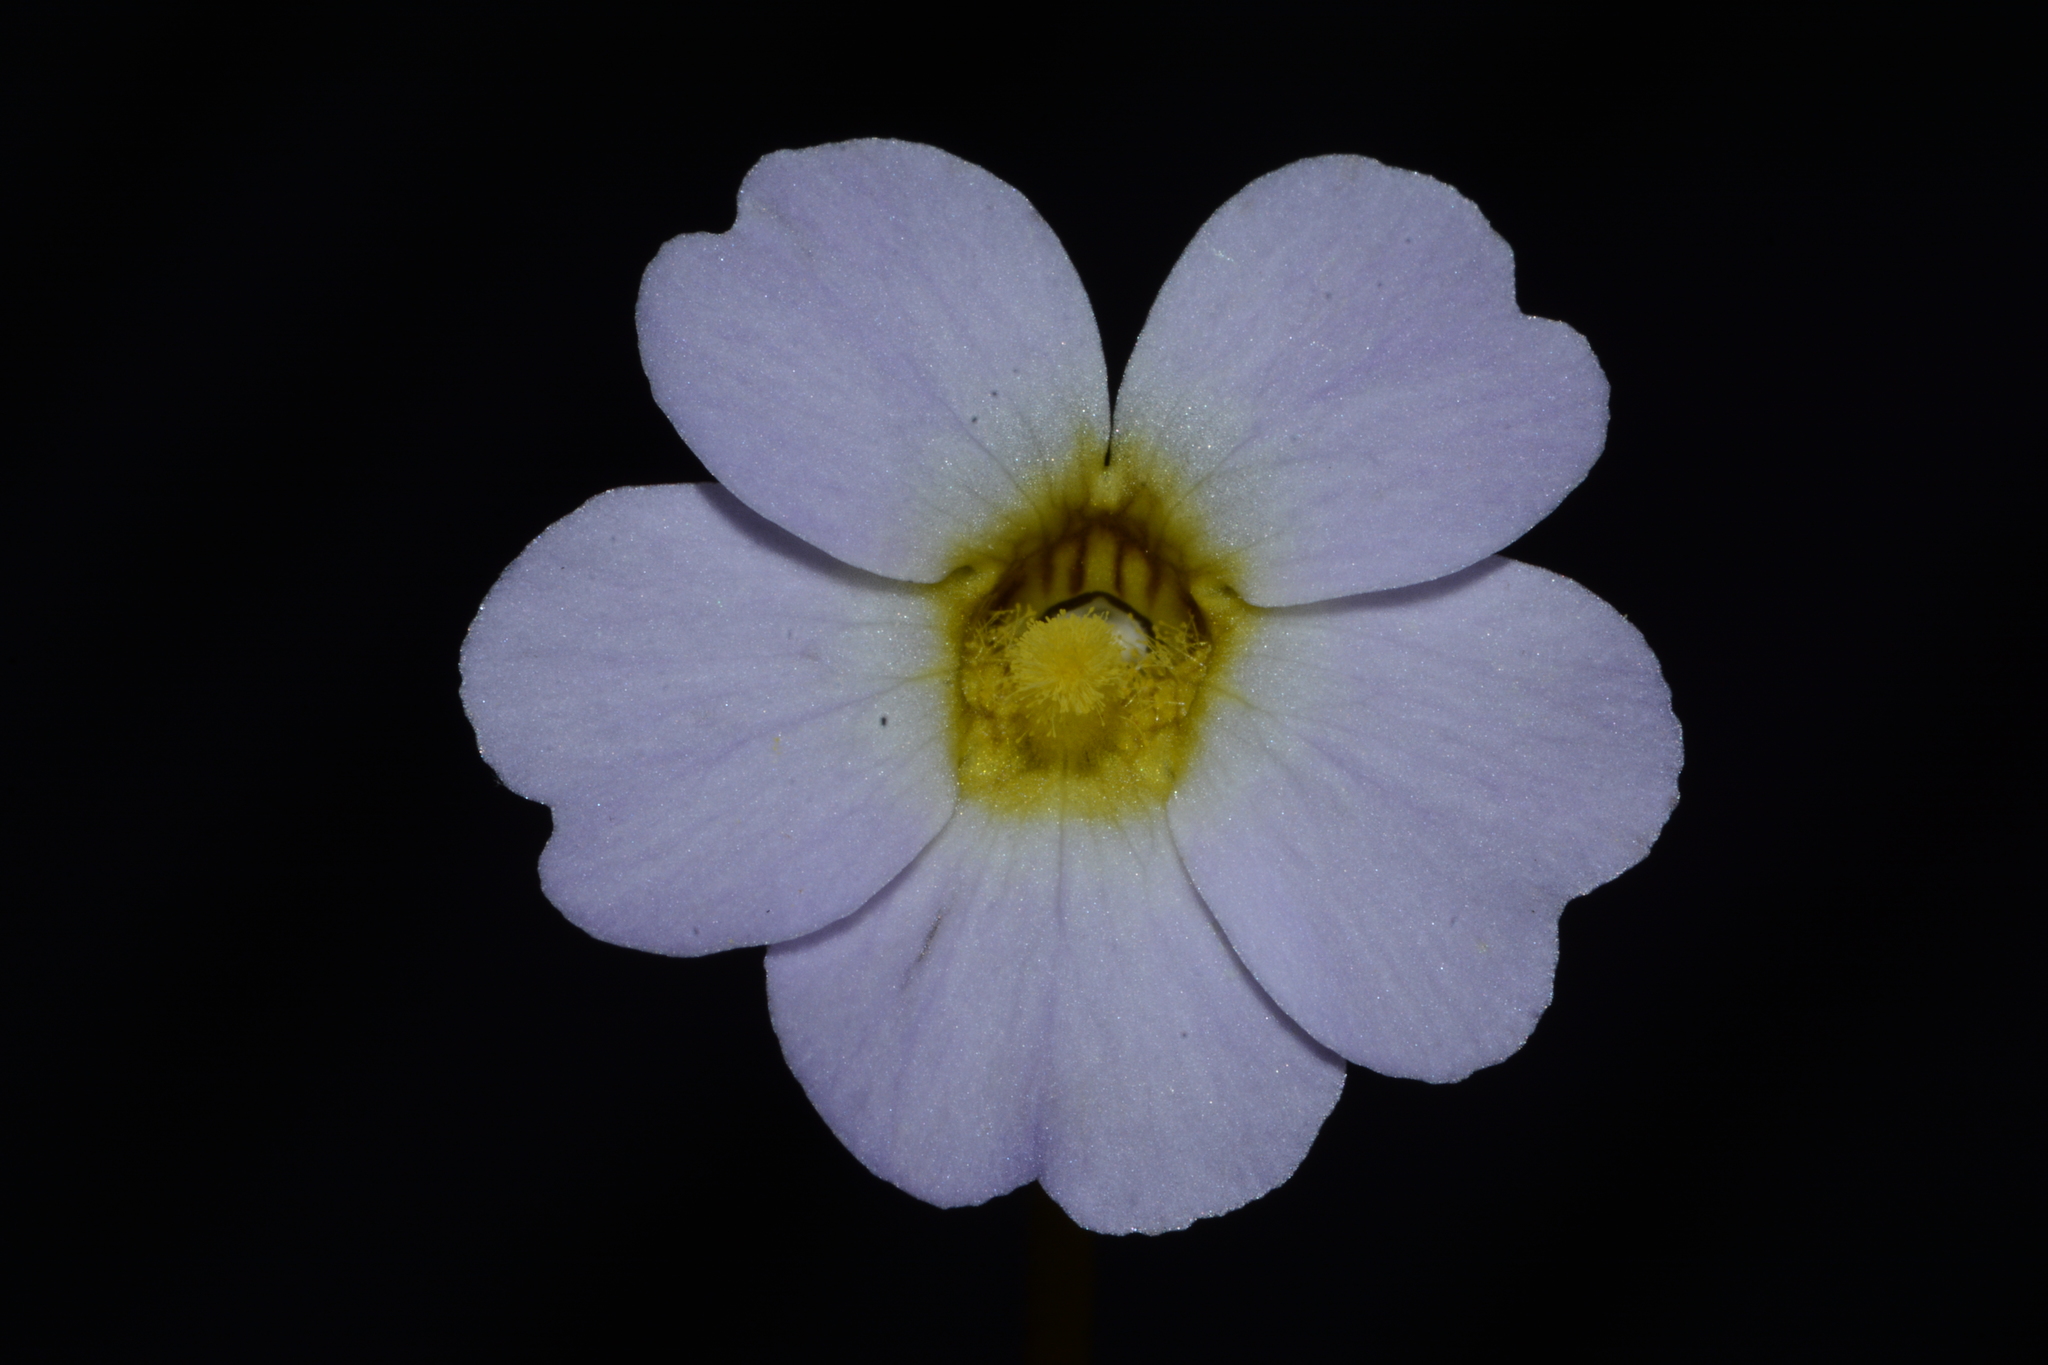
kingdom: Plantae
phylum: Tracheophyta
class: Magnoliopsida
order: Lamiales
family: Lentibulariaceae
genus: Pinguicula
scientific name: Pinguicula primuliflora
